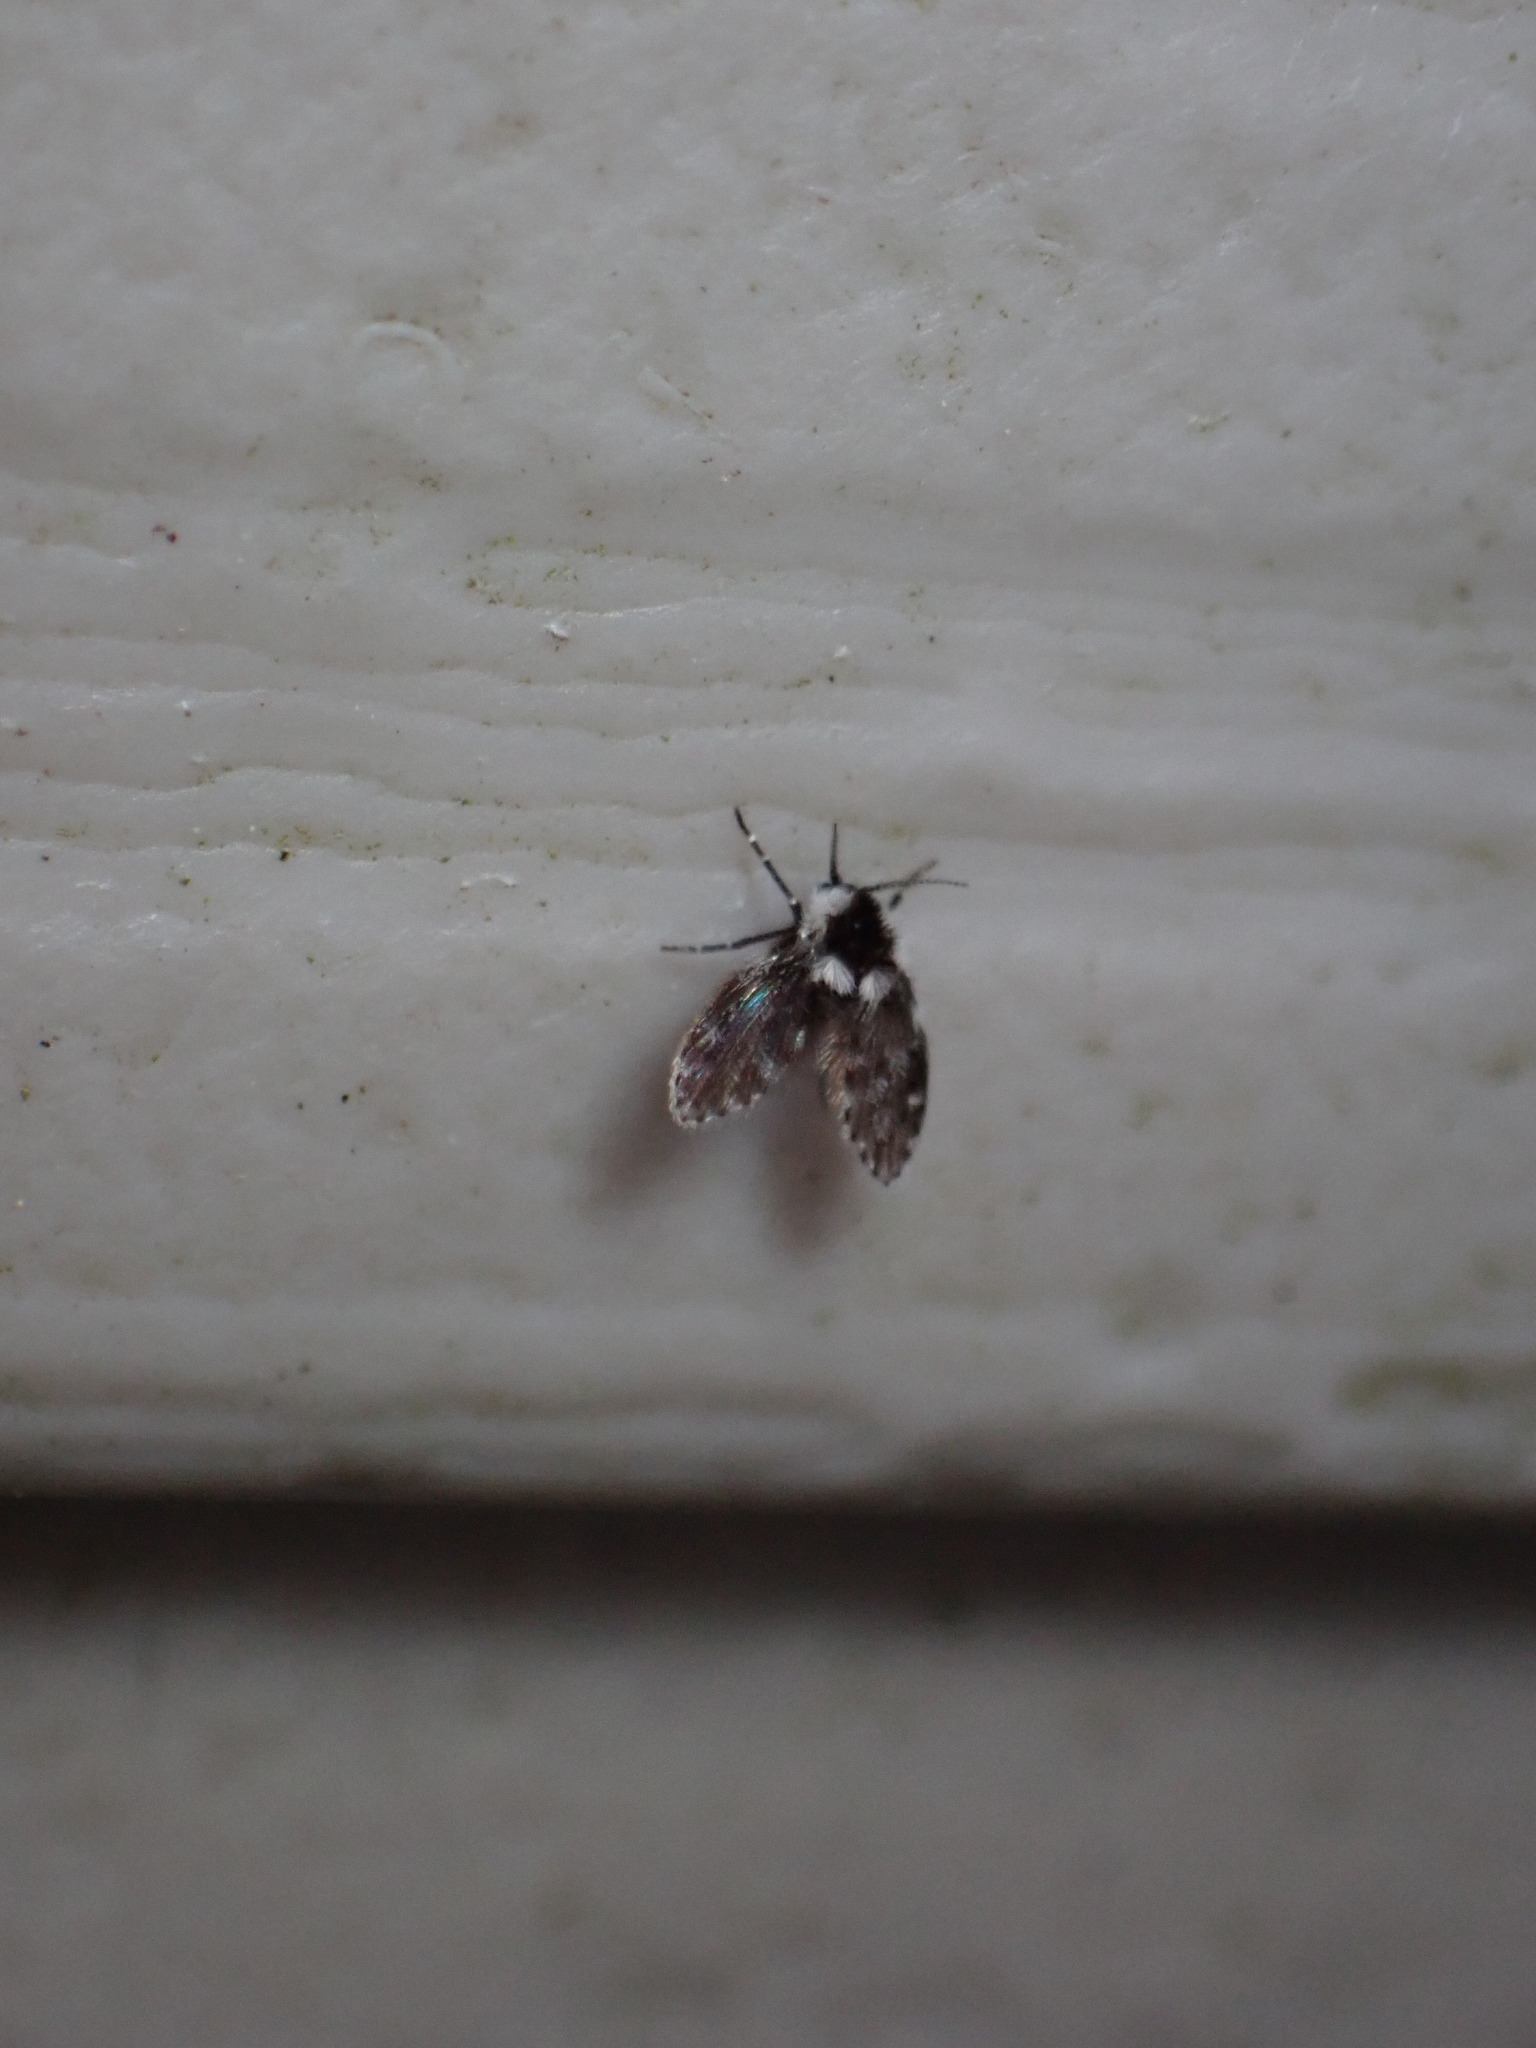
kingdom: Animalia
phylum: Arthropoda
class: Insecta
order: Diptera
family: Psychodidae
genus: Lepiseodina
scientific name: Lepiseodina
